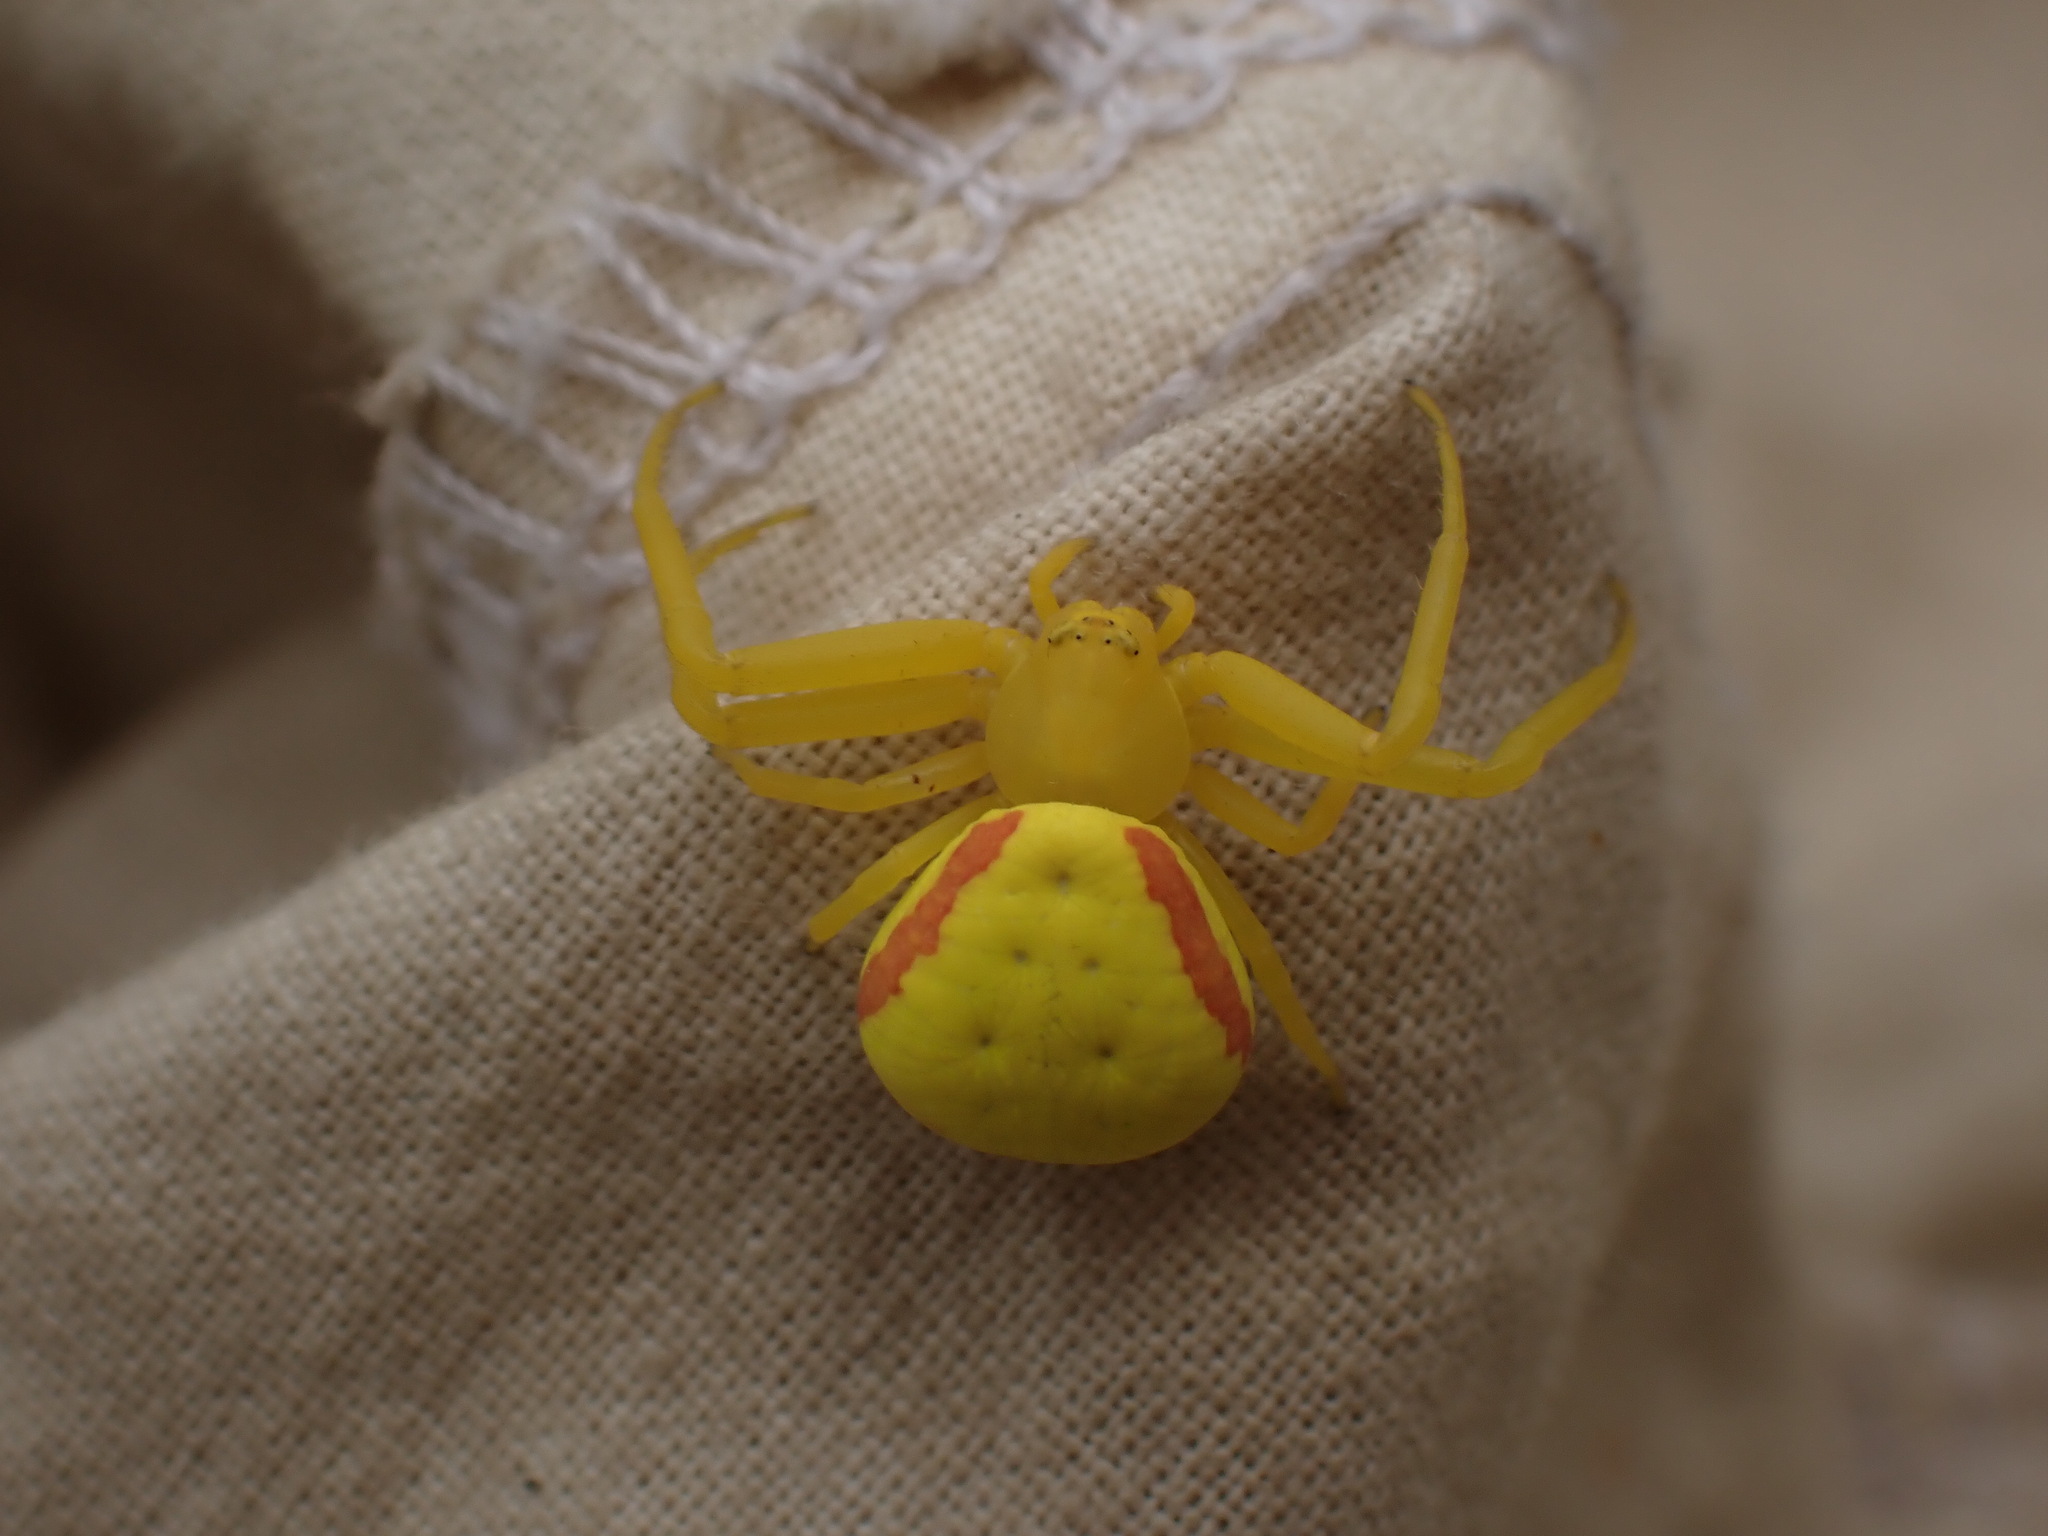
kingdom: Animalia
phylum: Arthropoda
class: Arachnida
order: Araneae
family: Thomisidae
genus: Misumena
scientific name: Misumena vatia
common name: Goldenrod crab spider
